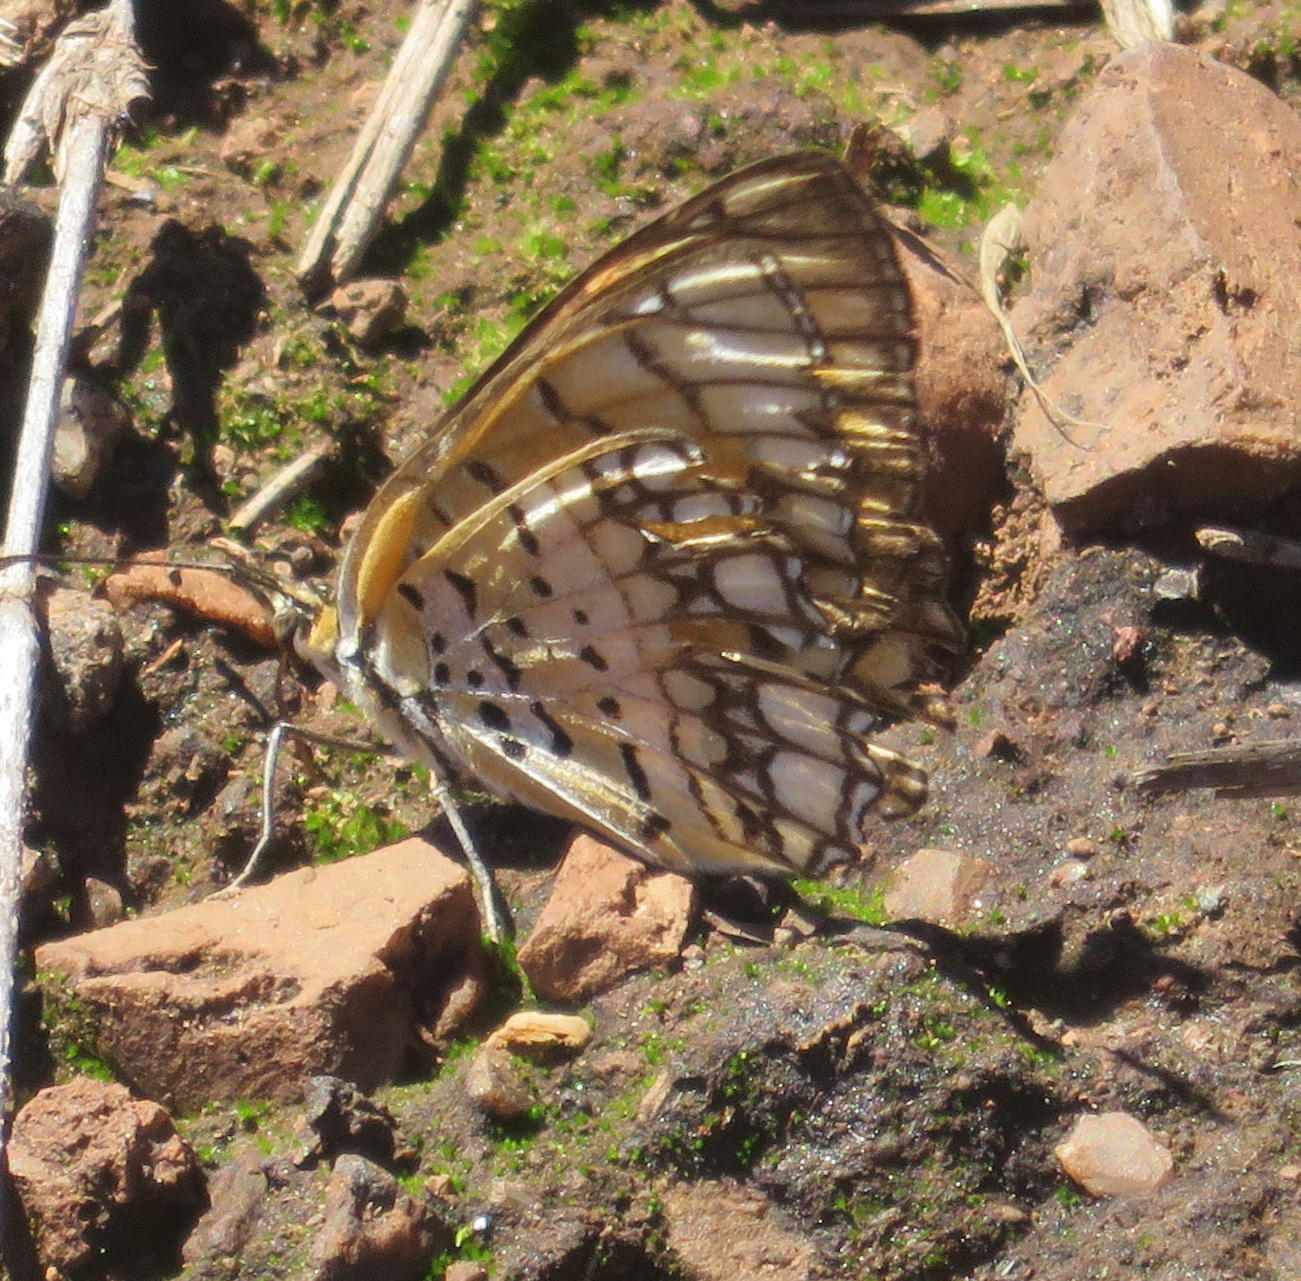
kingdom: Animalia
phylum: Arthropoda
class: Insecta
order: Lepidoptera
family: Nymphalidae
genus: Byblia
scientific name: Byblia ilithyia
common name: Spotted joker
